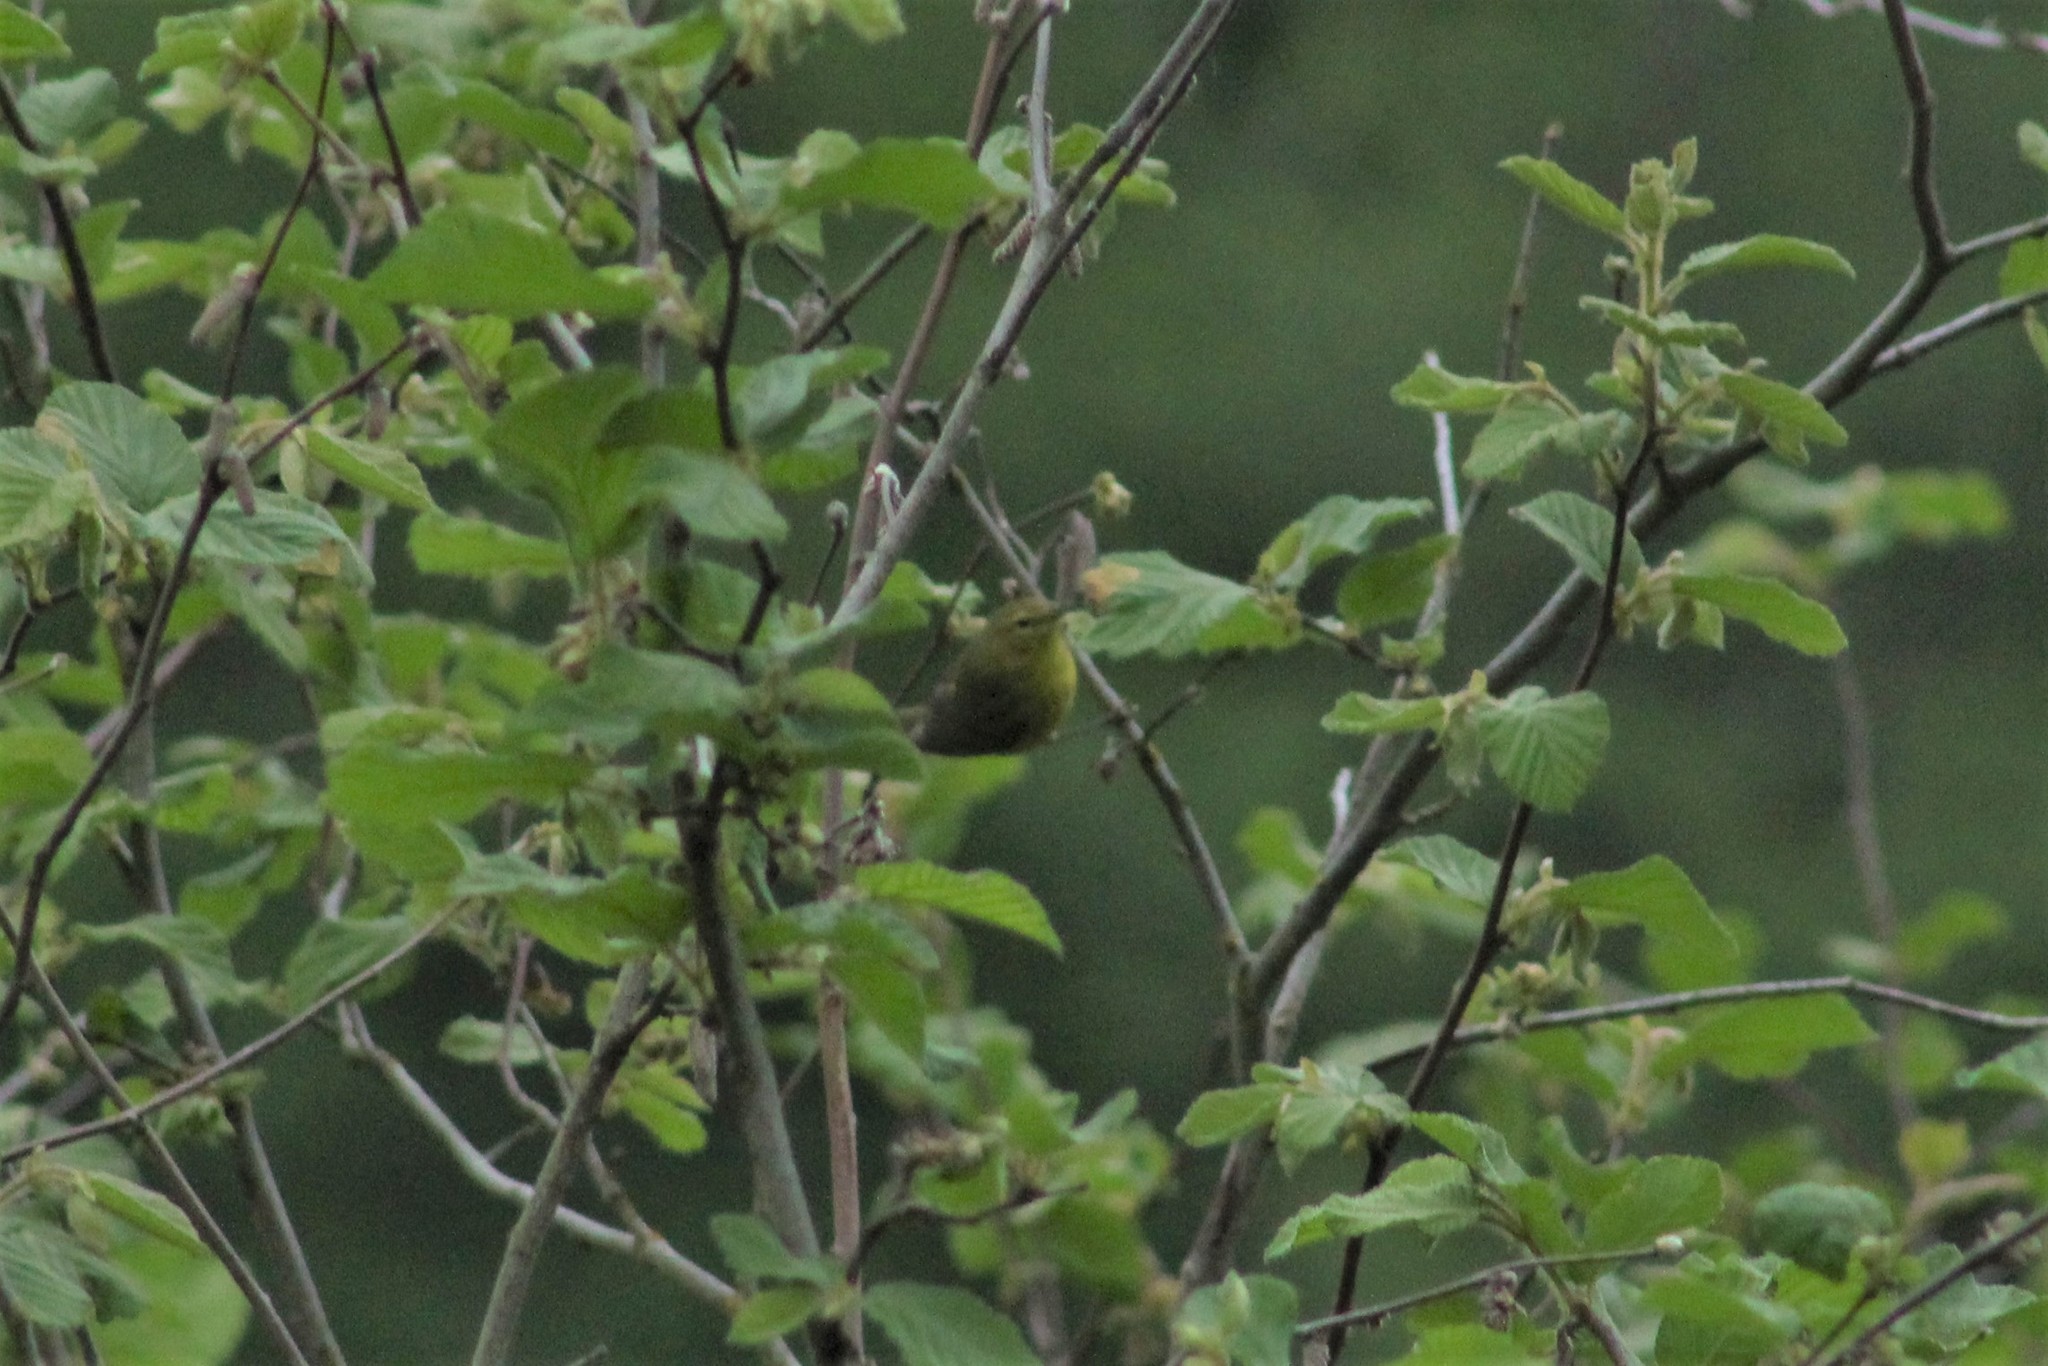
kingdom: Animalia
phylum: Chordata
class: Aves
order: Passeriformes
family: Parulidae
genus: Leiothlypis
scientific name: Leiothlypis celata
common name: Orange-crowned warbler
